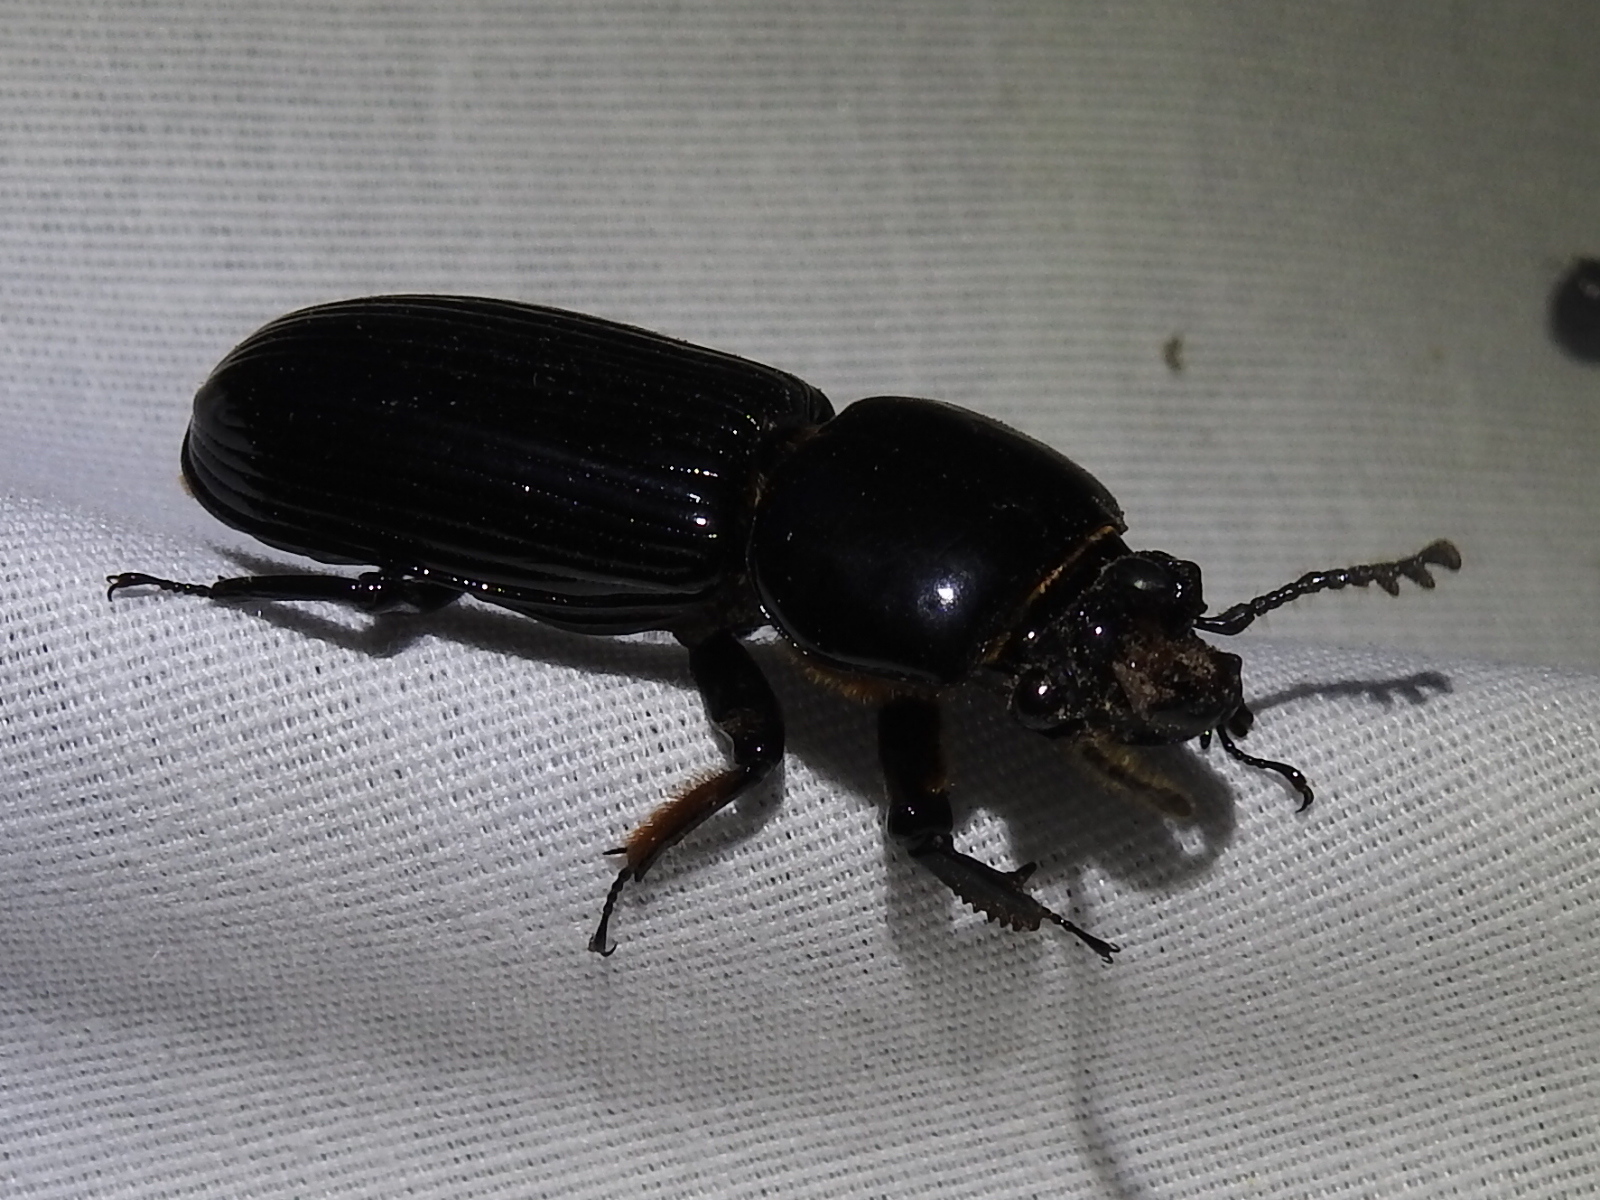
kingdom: Animalia
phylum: Arthropoda
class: Insecta
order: Coleoptera
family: Passalidae
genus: Odontotaenius
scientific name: Odontotaenius disjunctus
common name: Patent leather beetle
